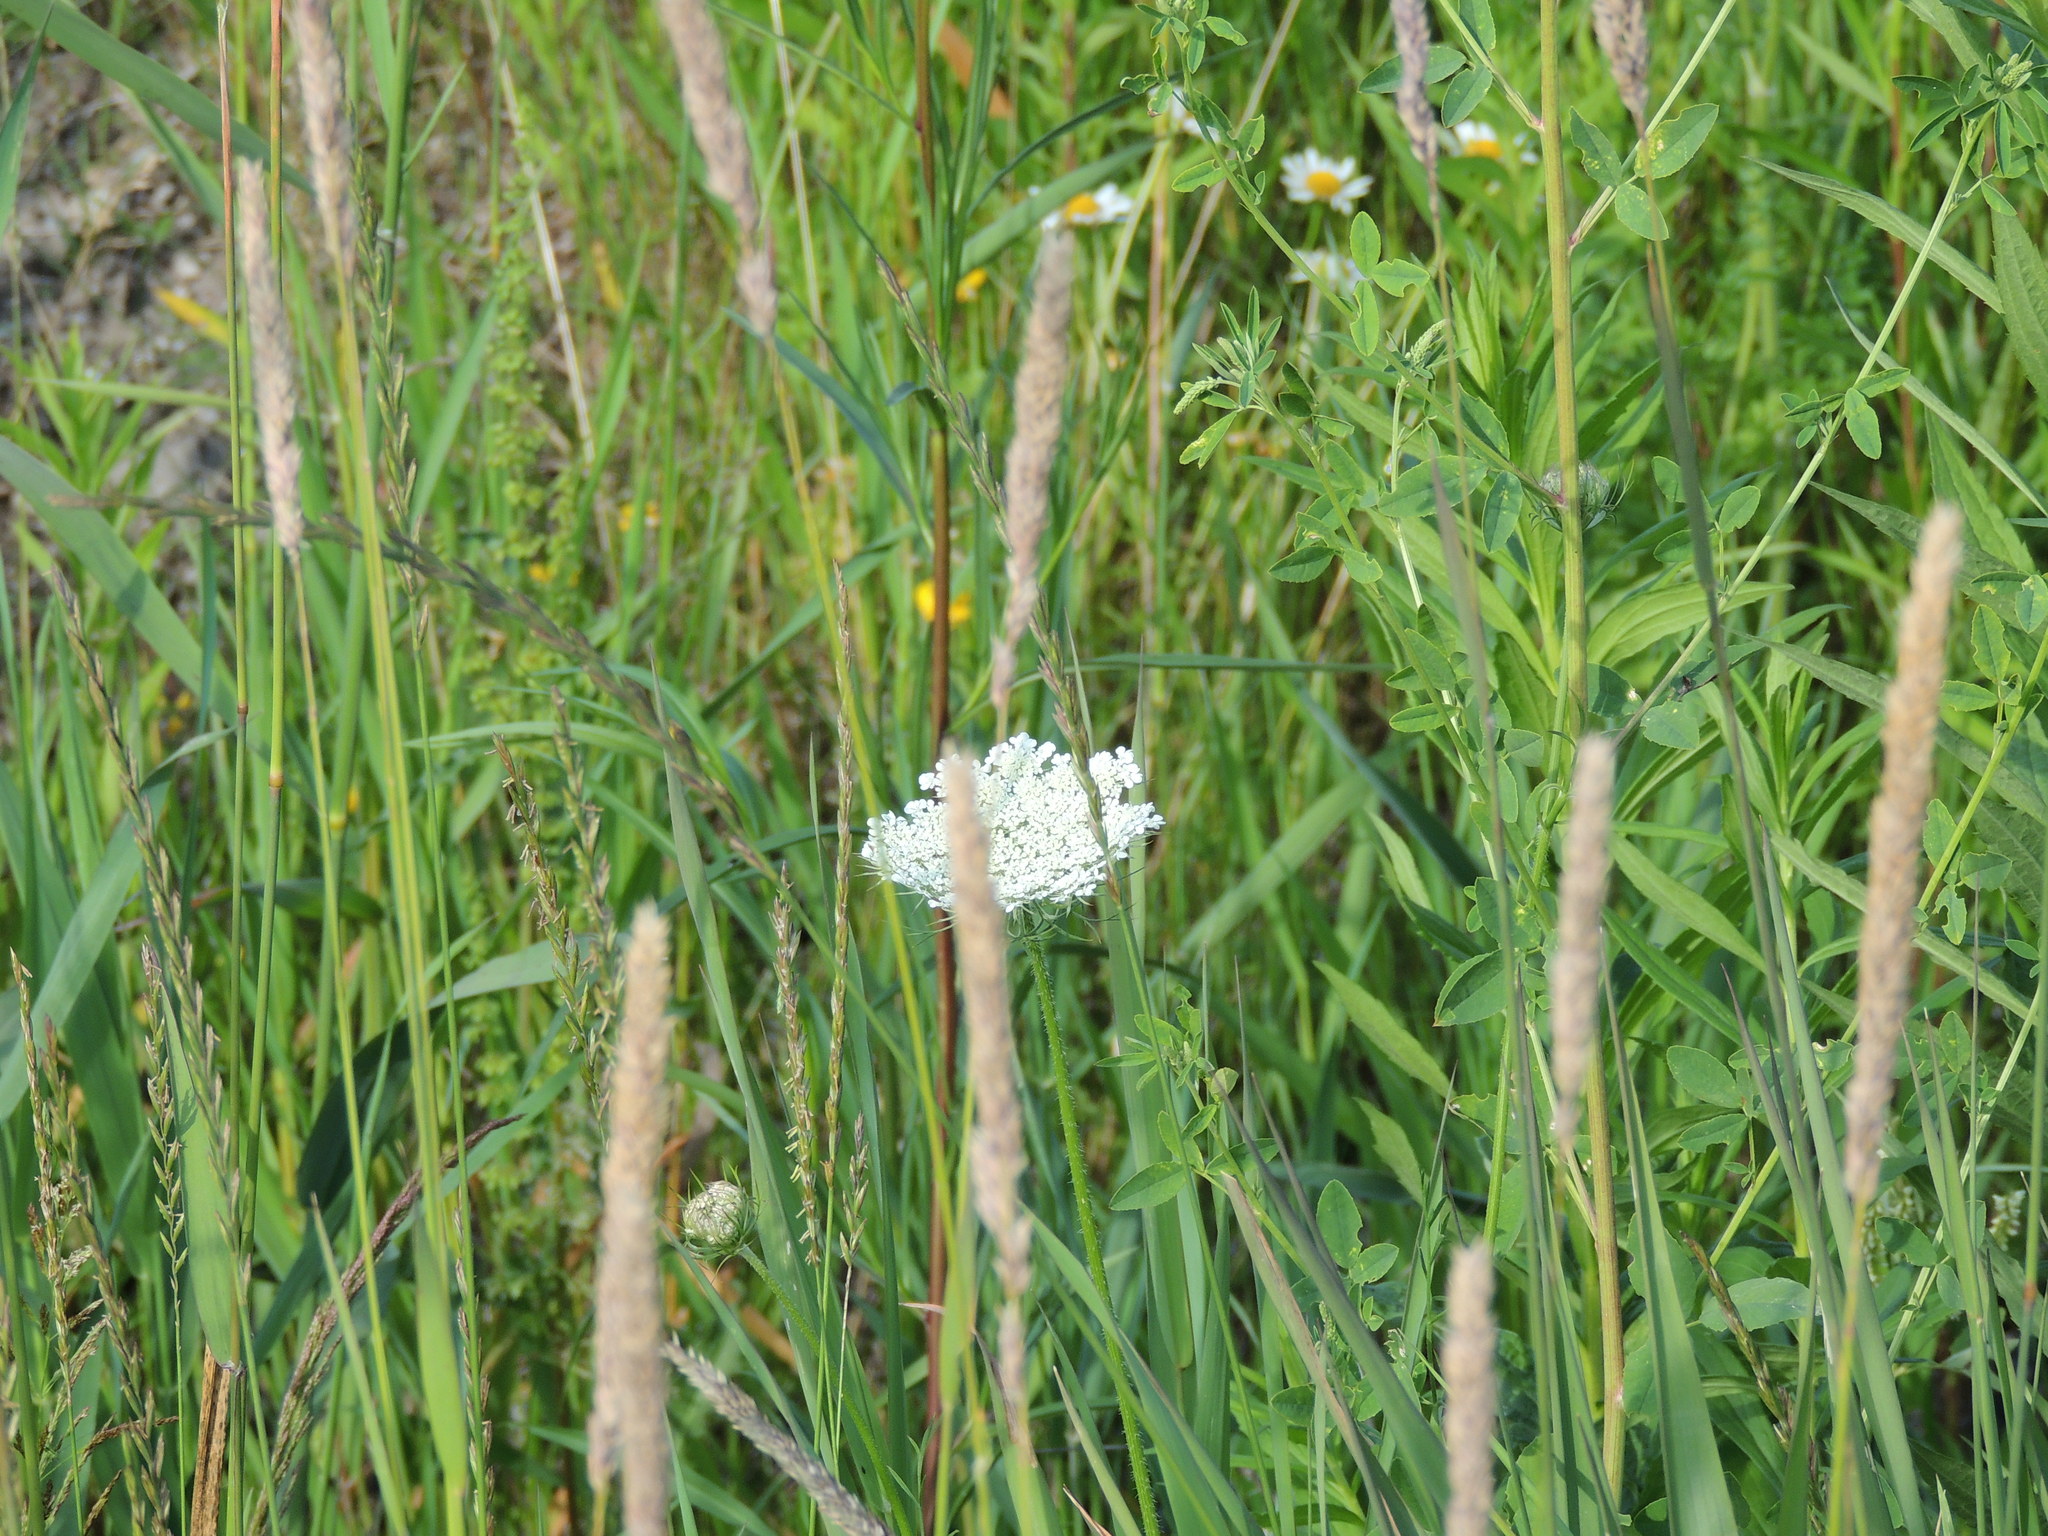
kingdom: Plantae
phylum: Tracheophyta
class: Magnoliopsida
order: Apiales
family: Apiaceae
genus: Daucus
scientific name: Daucus carota
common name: Wild carrot
